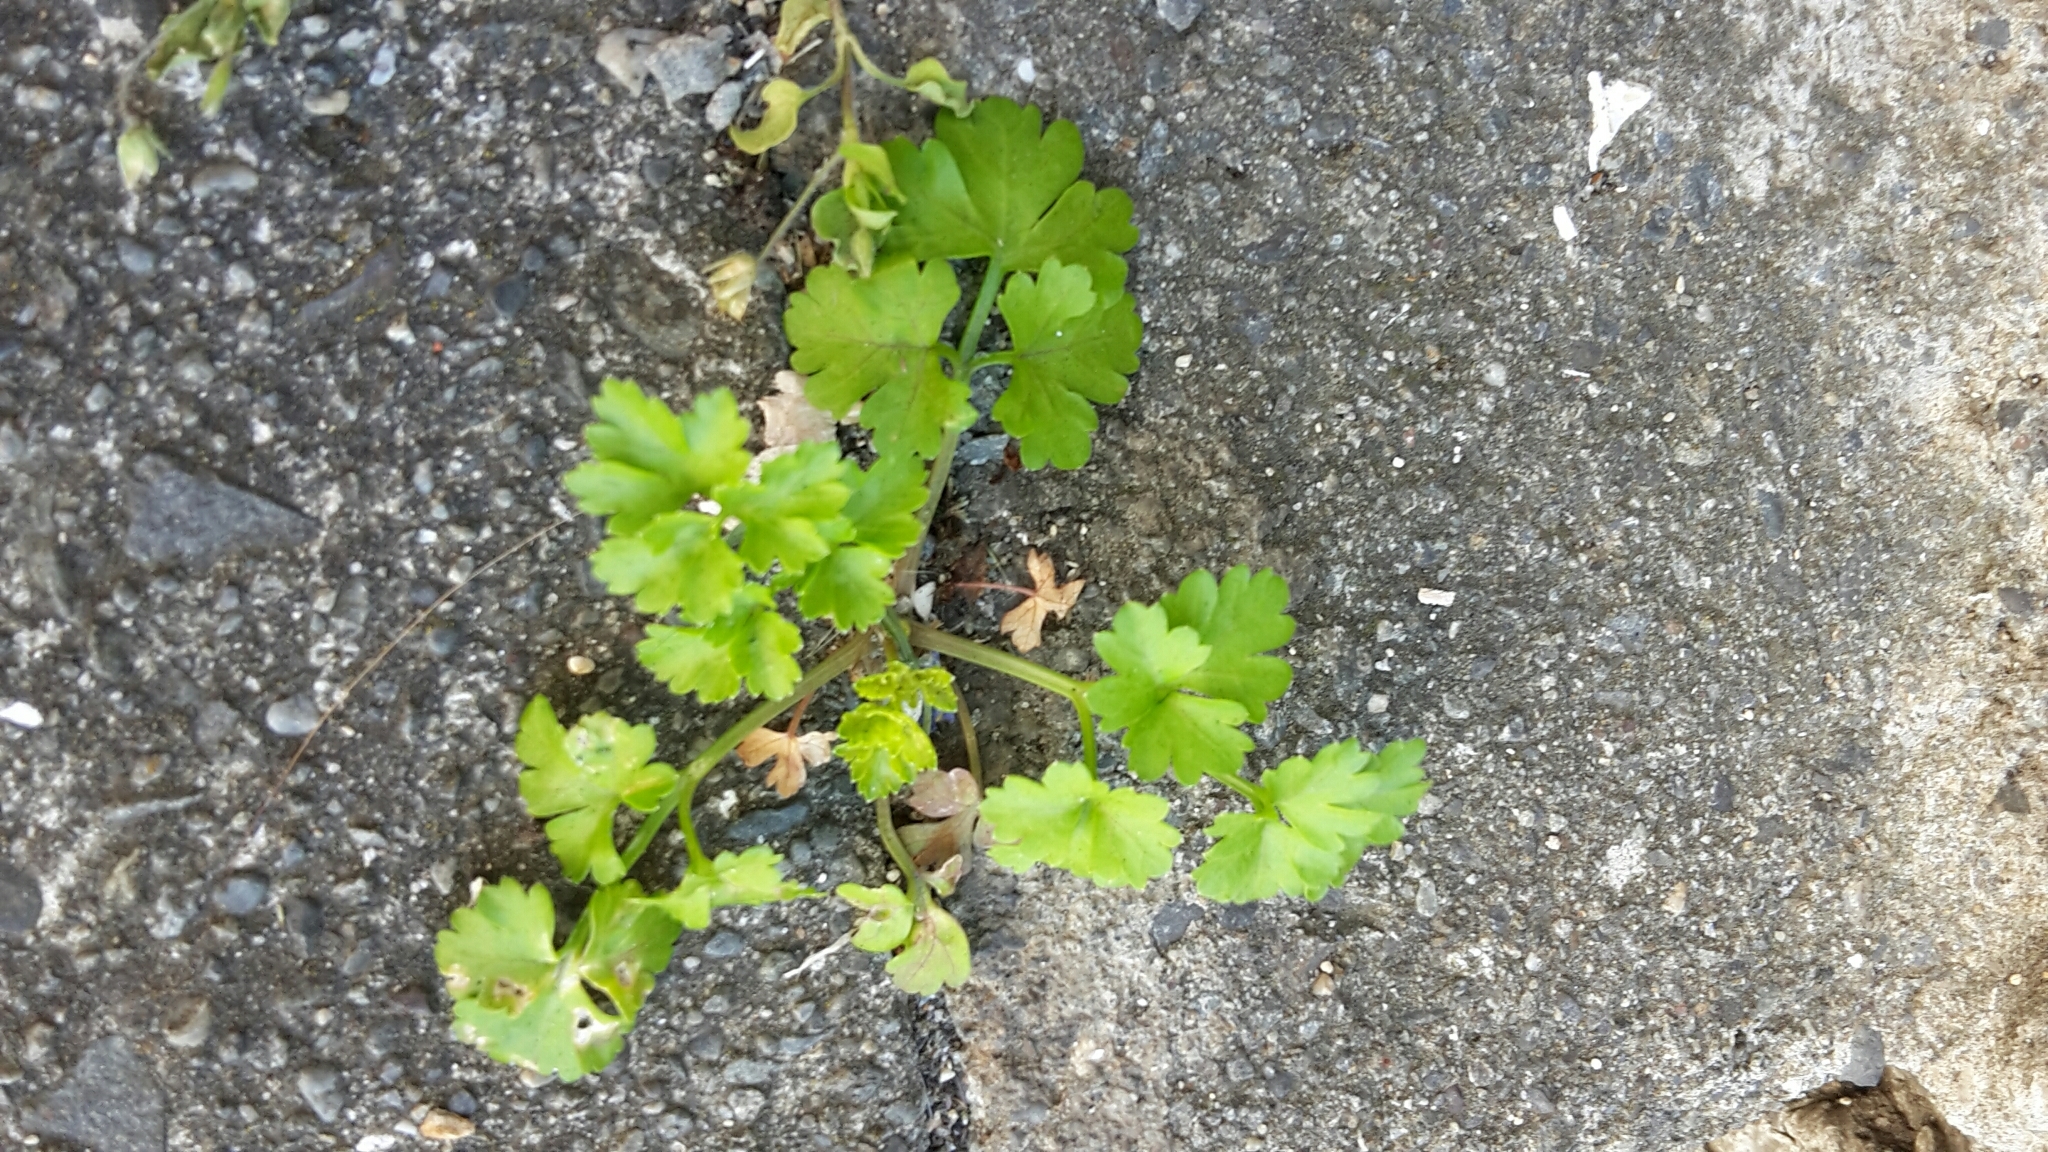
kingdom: Plantae
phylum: Tracheophyta
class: Magnoliopsida
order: Apiales
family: Apiaceae
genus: Petroselinum
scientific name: Petroselinum crispum
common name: Parsley
